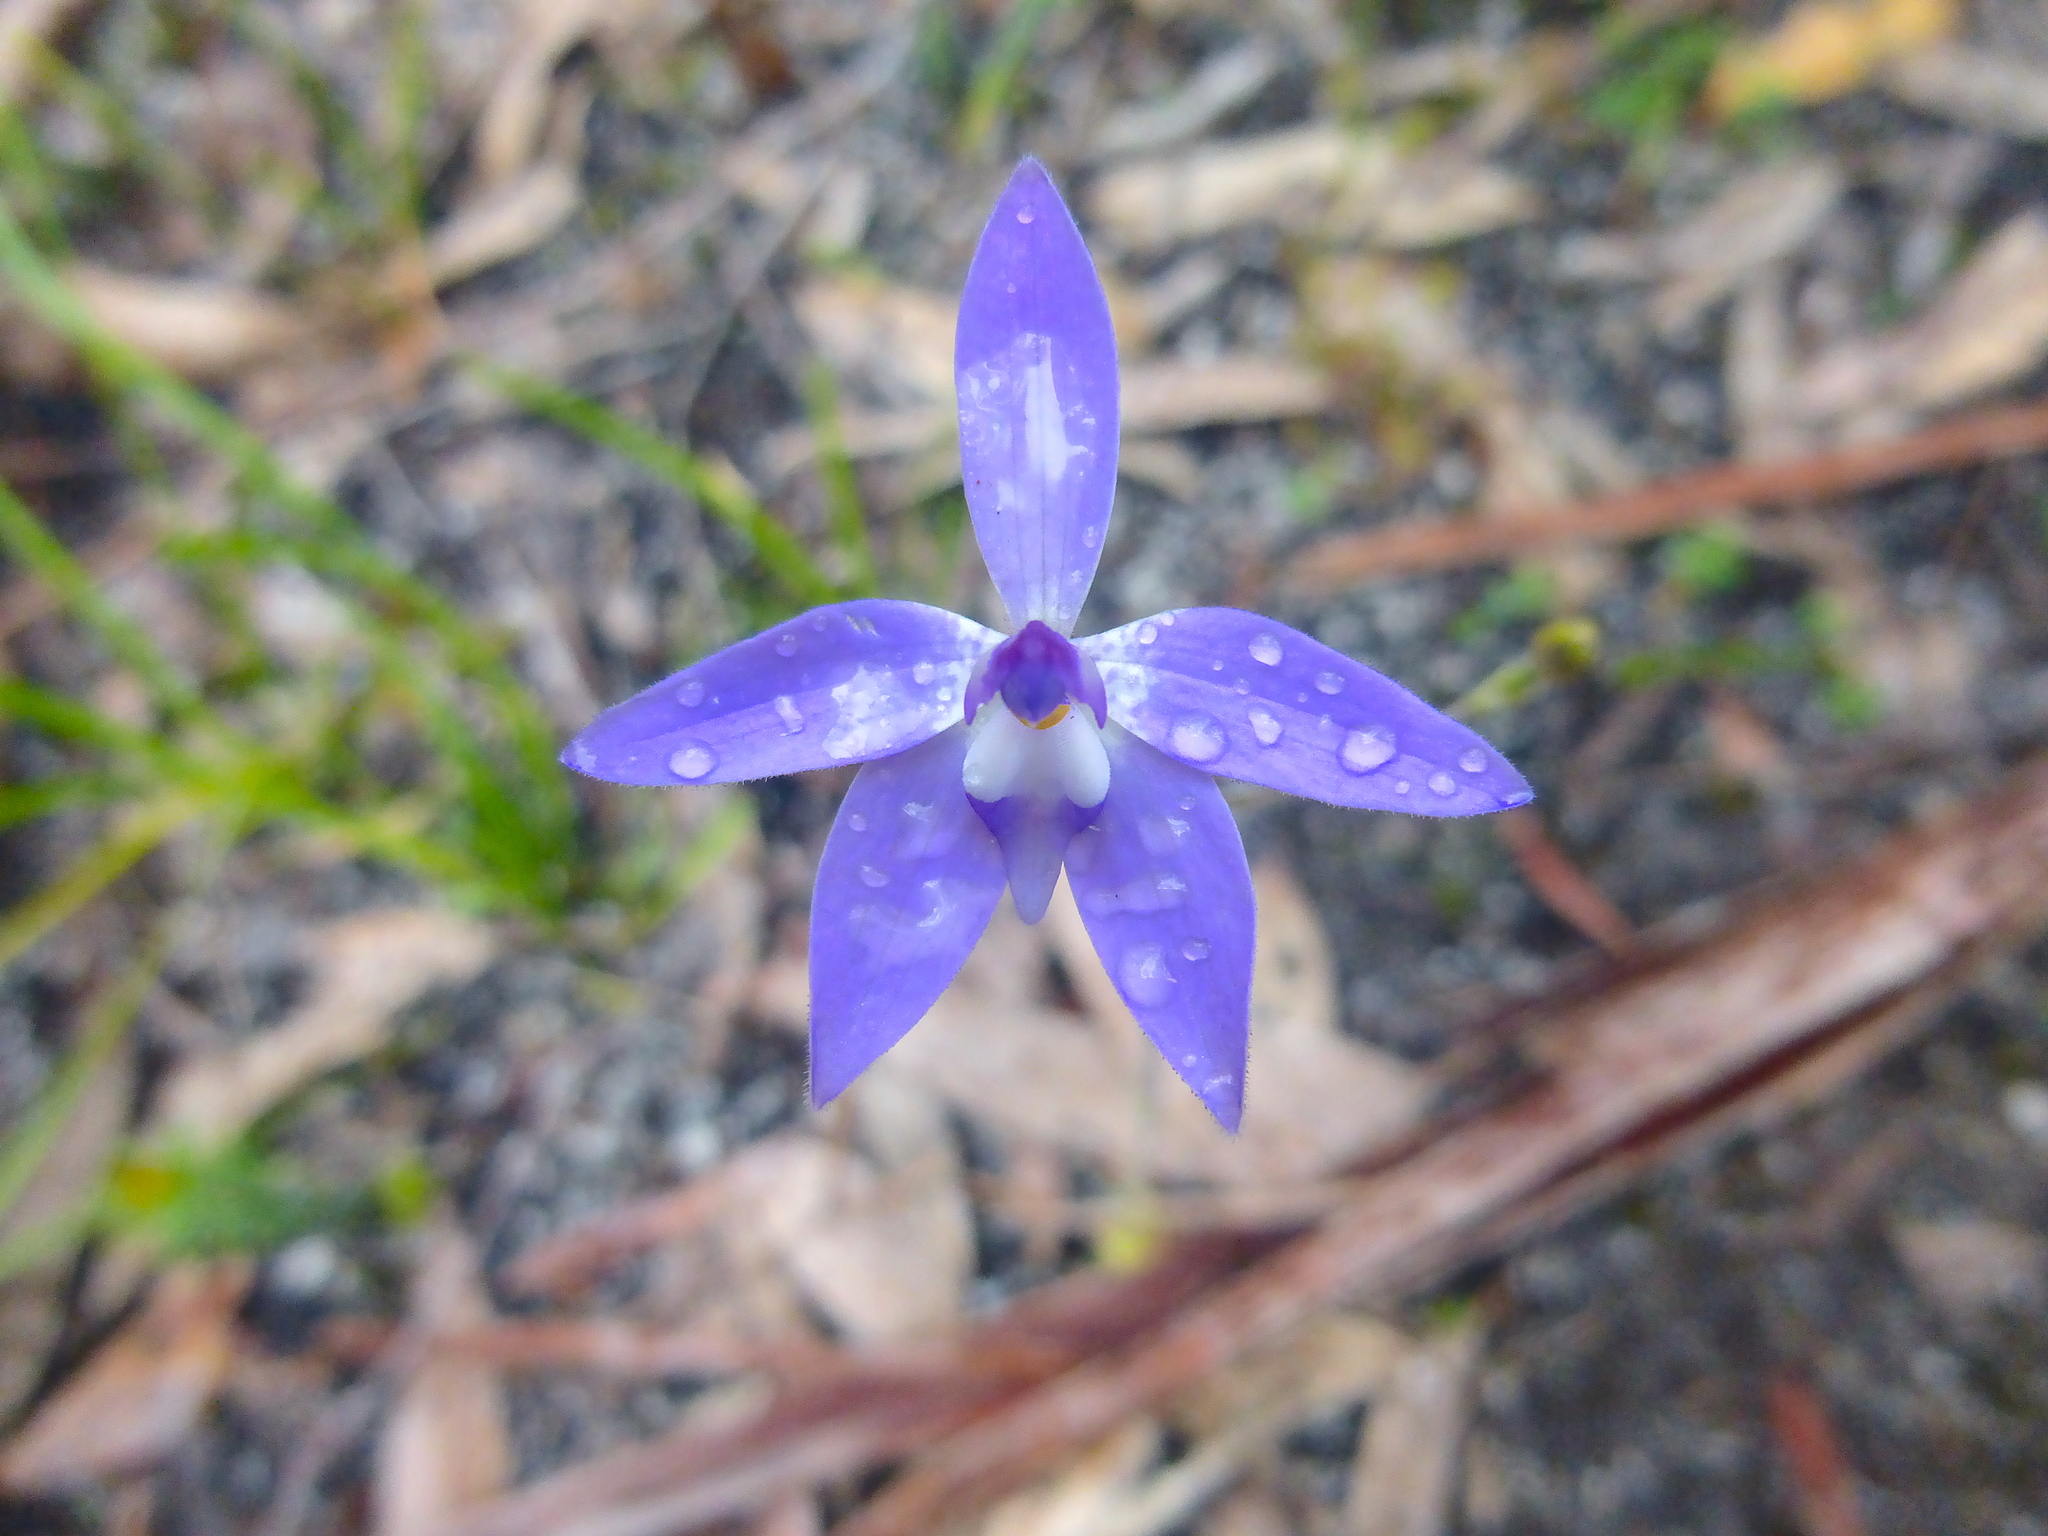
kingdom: Plantae
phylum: Tracheophyta
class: Liliopsida
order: Asparagales
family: Orchidaceae
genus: Caladenia
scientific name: Caladenia major
